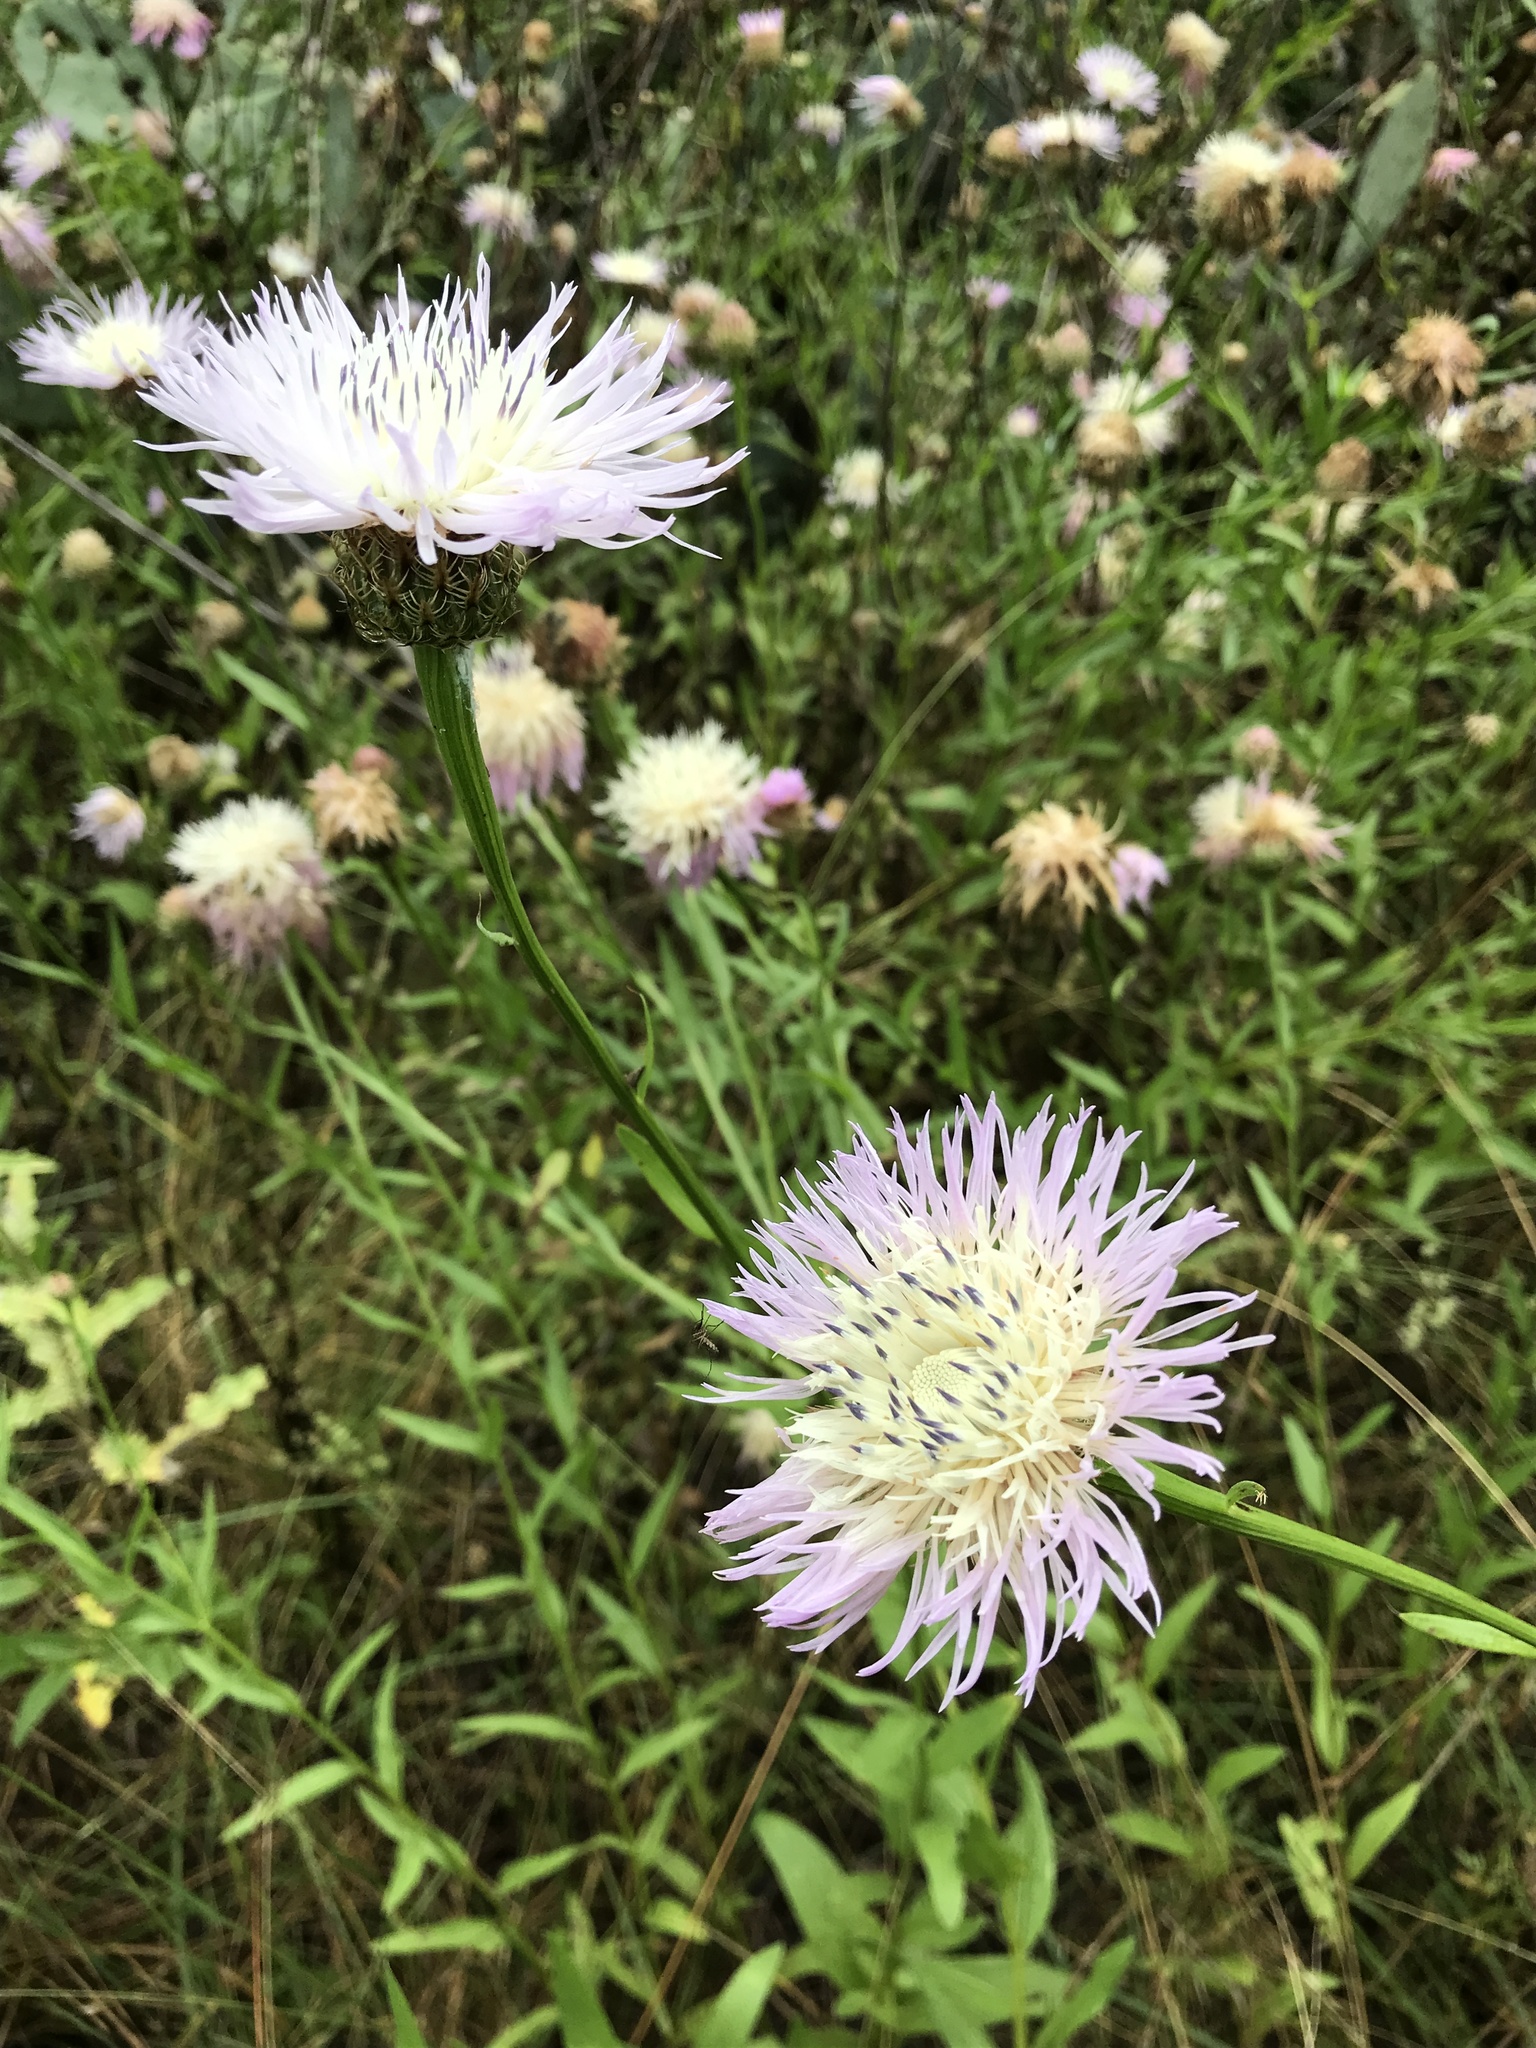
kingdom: Plantae
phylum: Tracheophyta
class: Magnoliopsida
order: Asterales
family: Asteraceae
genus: Plectocephalus
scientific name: Plectocephalus americanus
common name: American basket-flower
